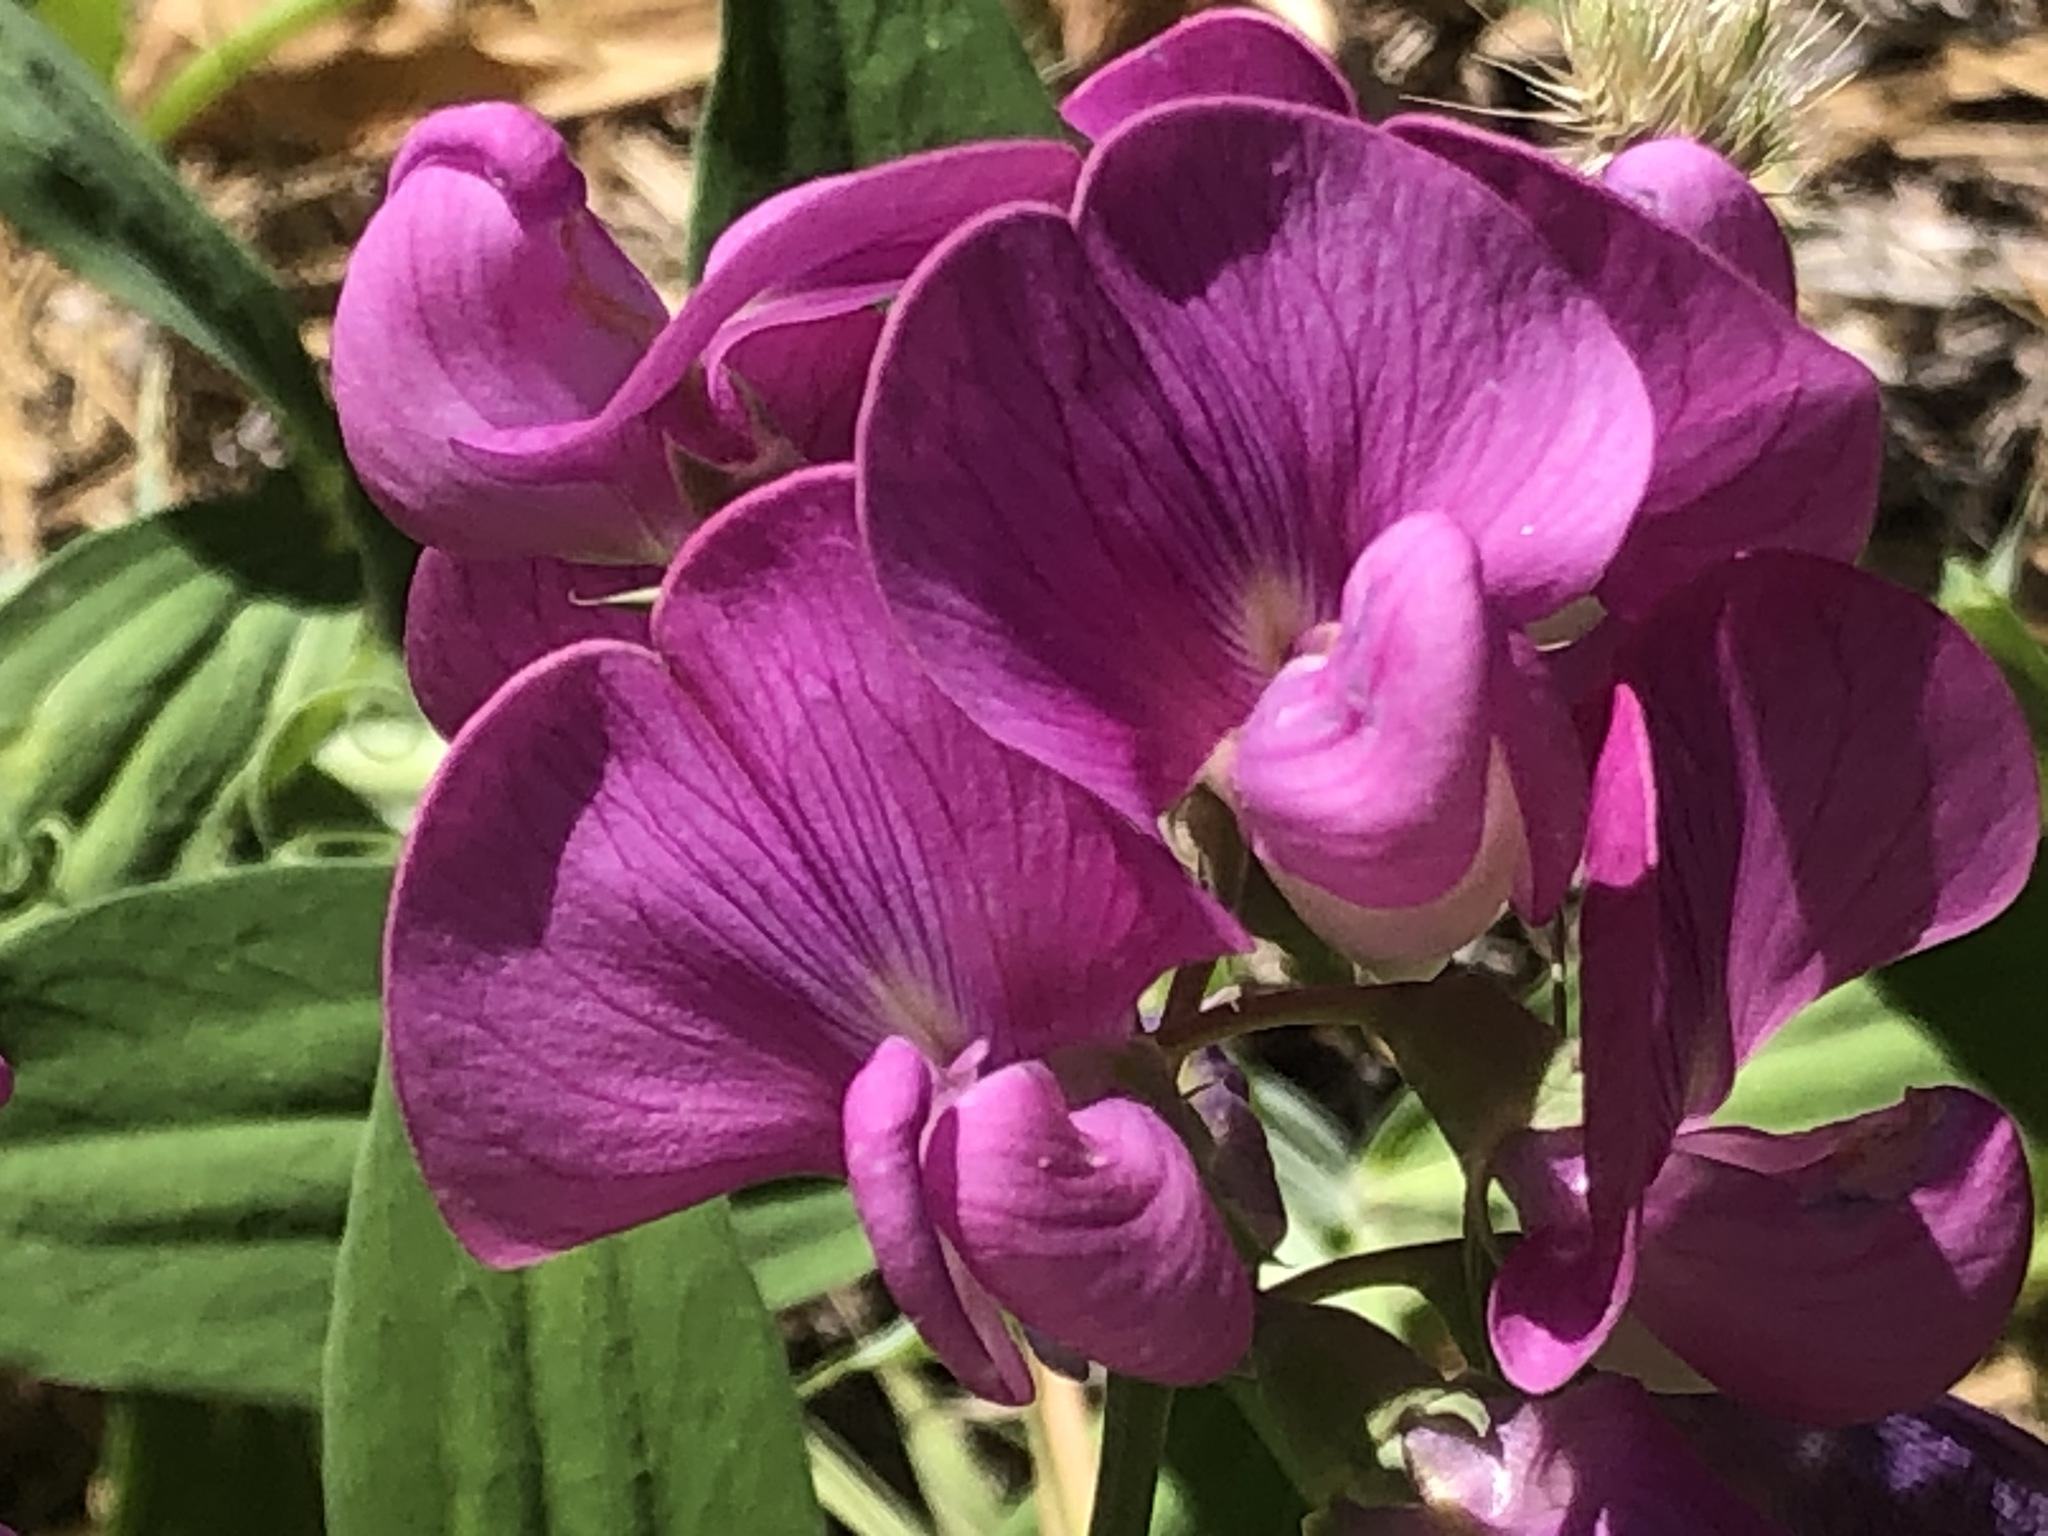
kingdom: Plantae
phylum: Tracheophyta
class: Magnoliopsida
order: Fabales
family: Fabaceae
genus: Lathyrus
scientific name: Lathyrus latifolius
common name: Perennial pea
